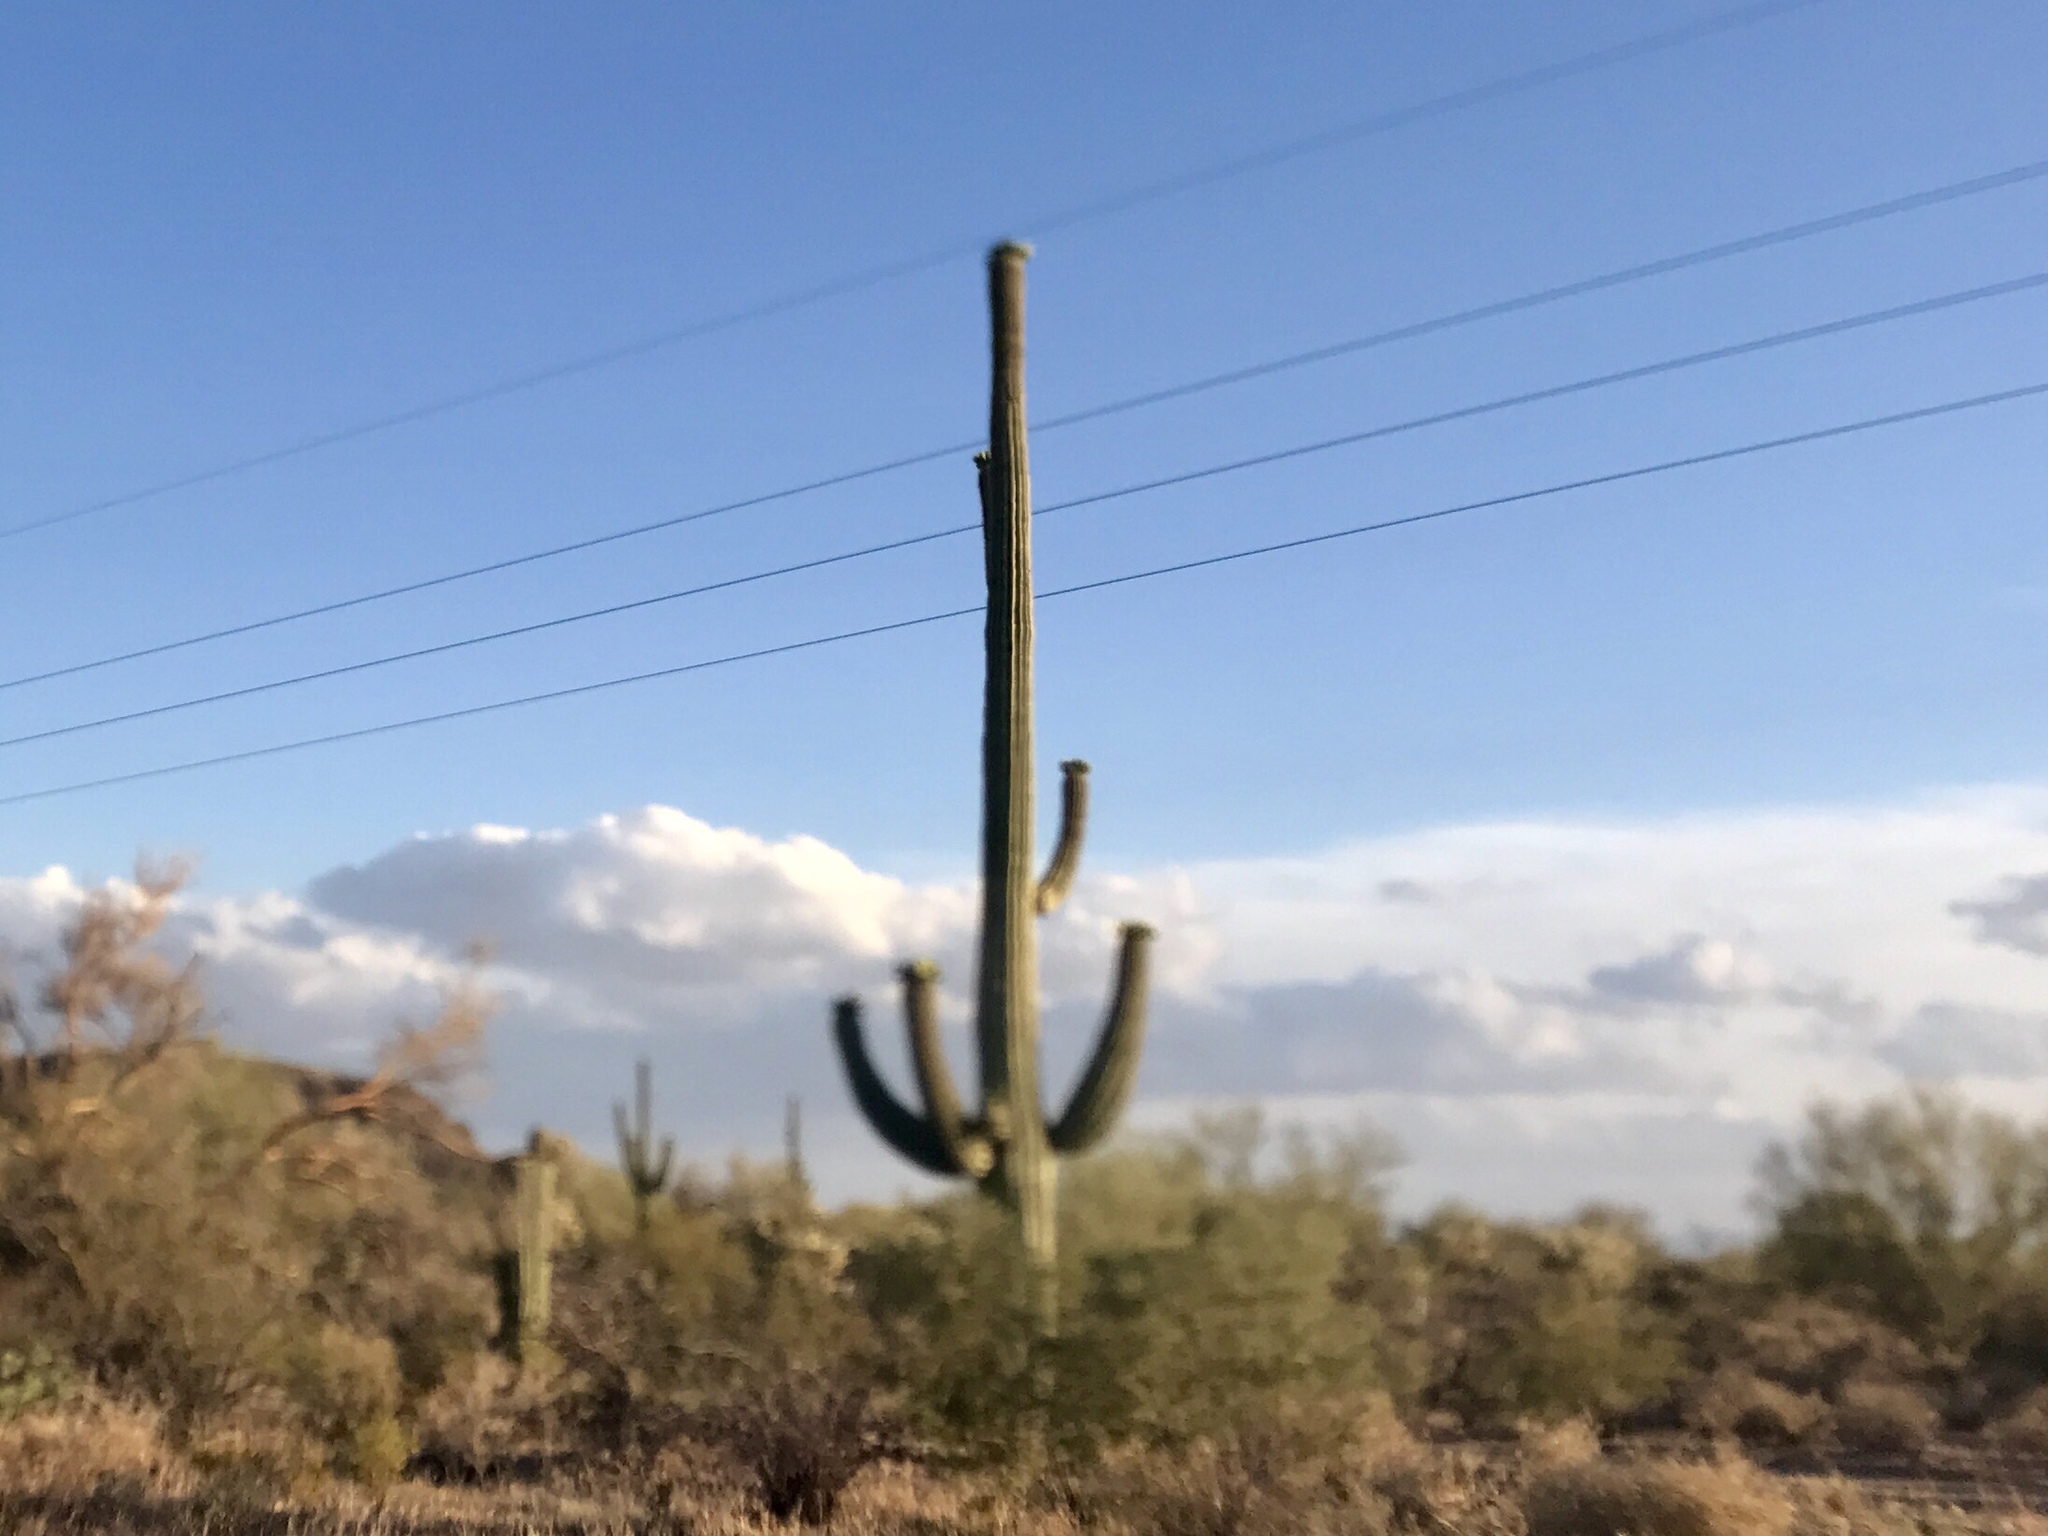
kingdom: Plantae
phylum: Tracheophyta
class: Magnoliopsida
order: Caryophyllales
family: Cactaceae
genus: Carnegiea
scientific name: Carnegiea gigantea
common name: Saguaro
